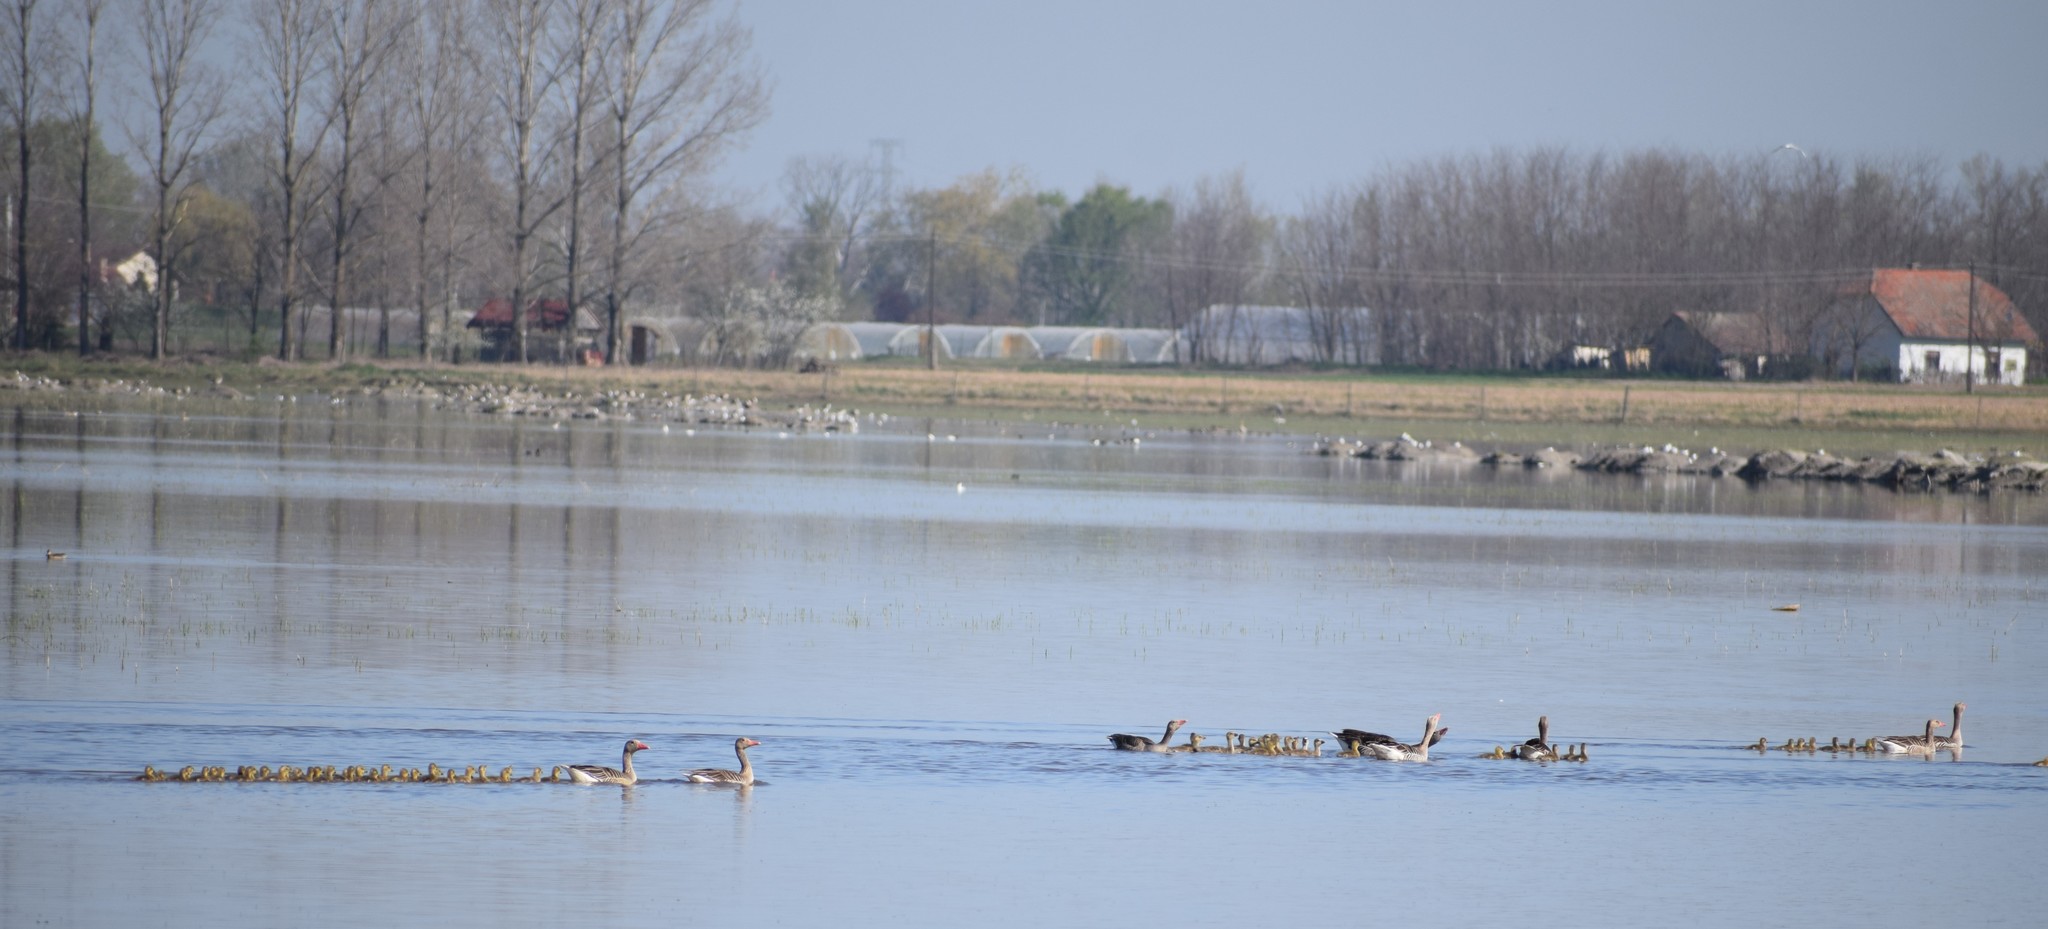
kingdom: Animalia
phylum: Chordata
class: Aves
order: Anseriformes
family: Anatidae
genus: Anser
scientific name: Anser anser
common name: Greylag goose
